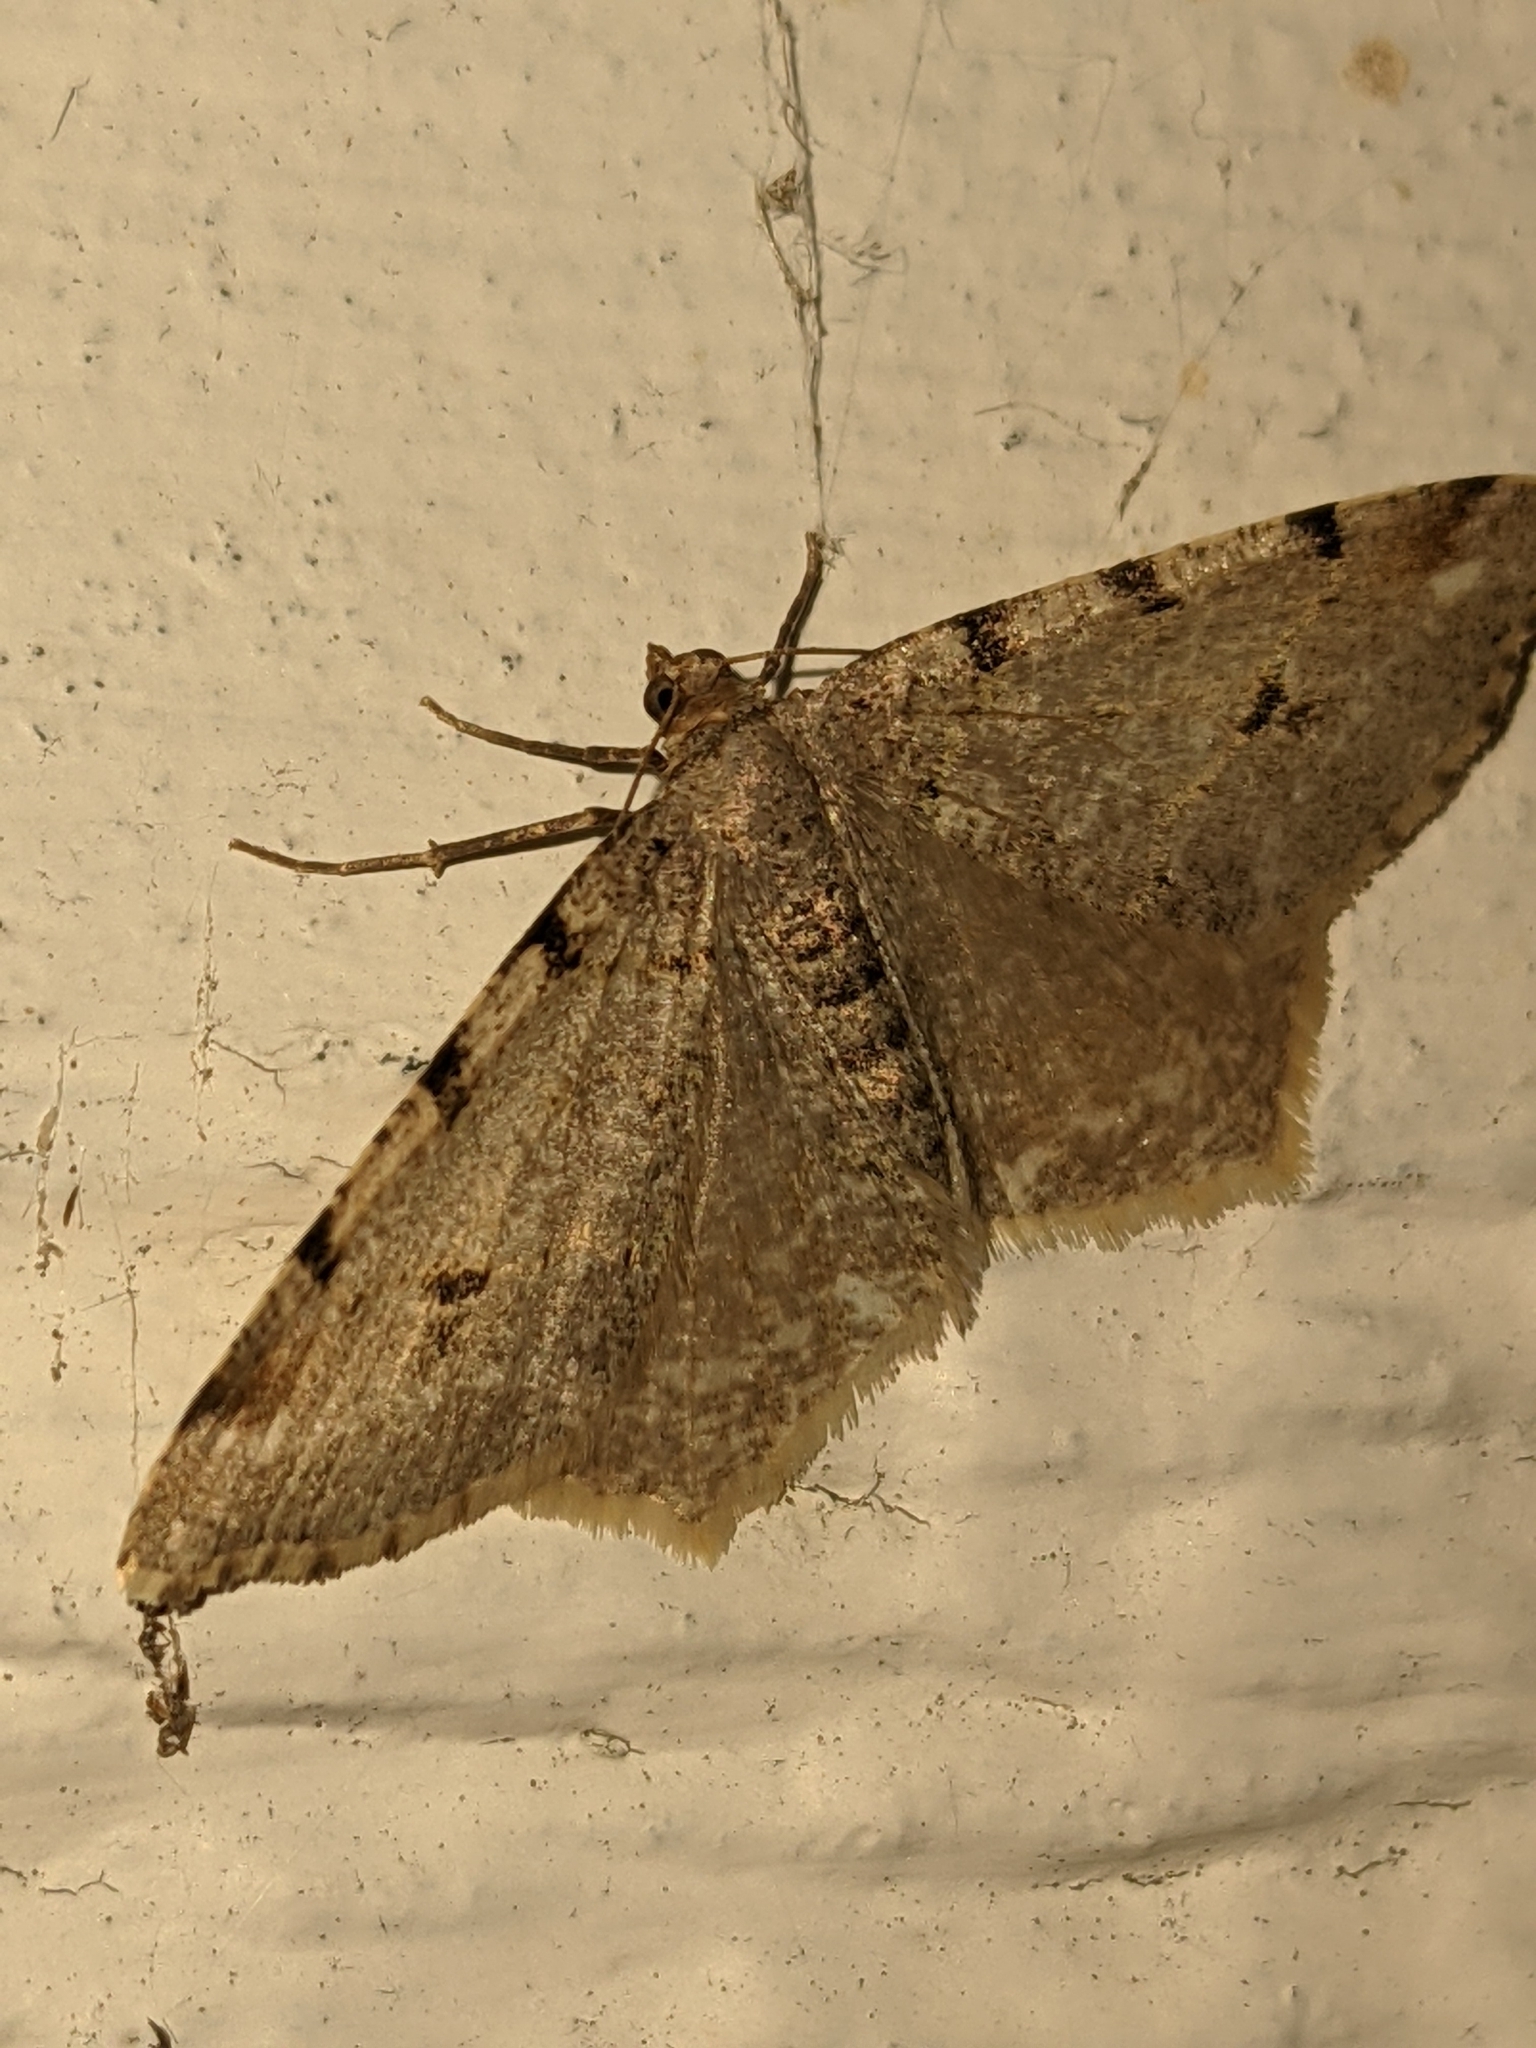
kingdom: Animalia
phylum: Arthropoda
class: Insecta
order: Lepidoptera
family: Geometridae
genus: Macaria
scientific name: Macaria bisignata
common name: Red-headed inchworm
